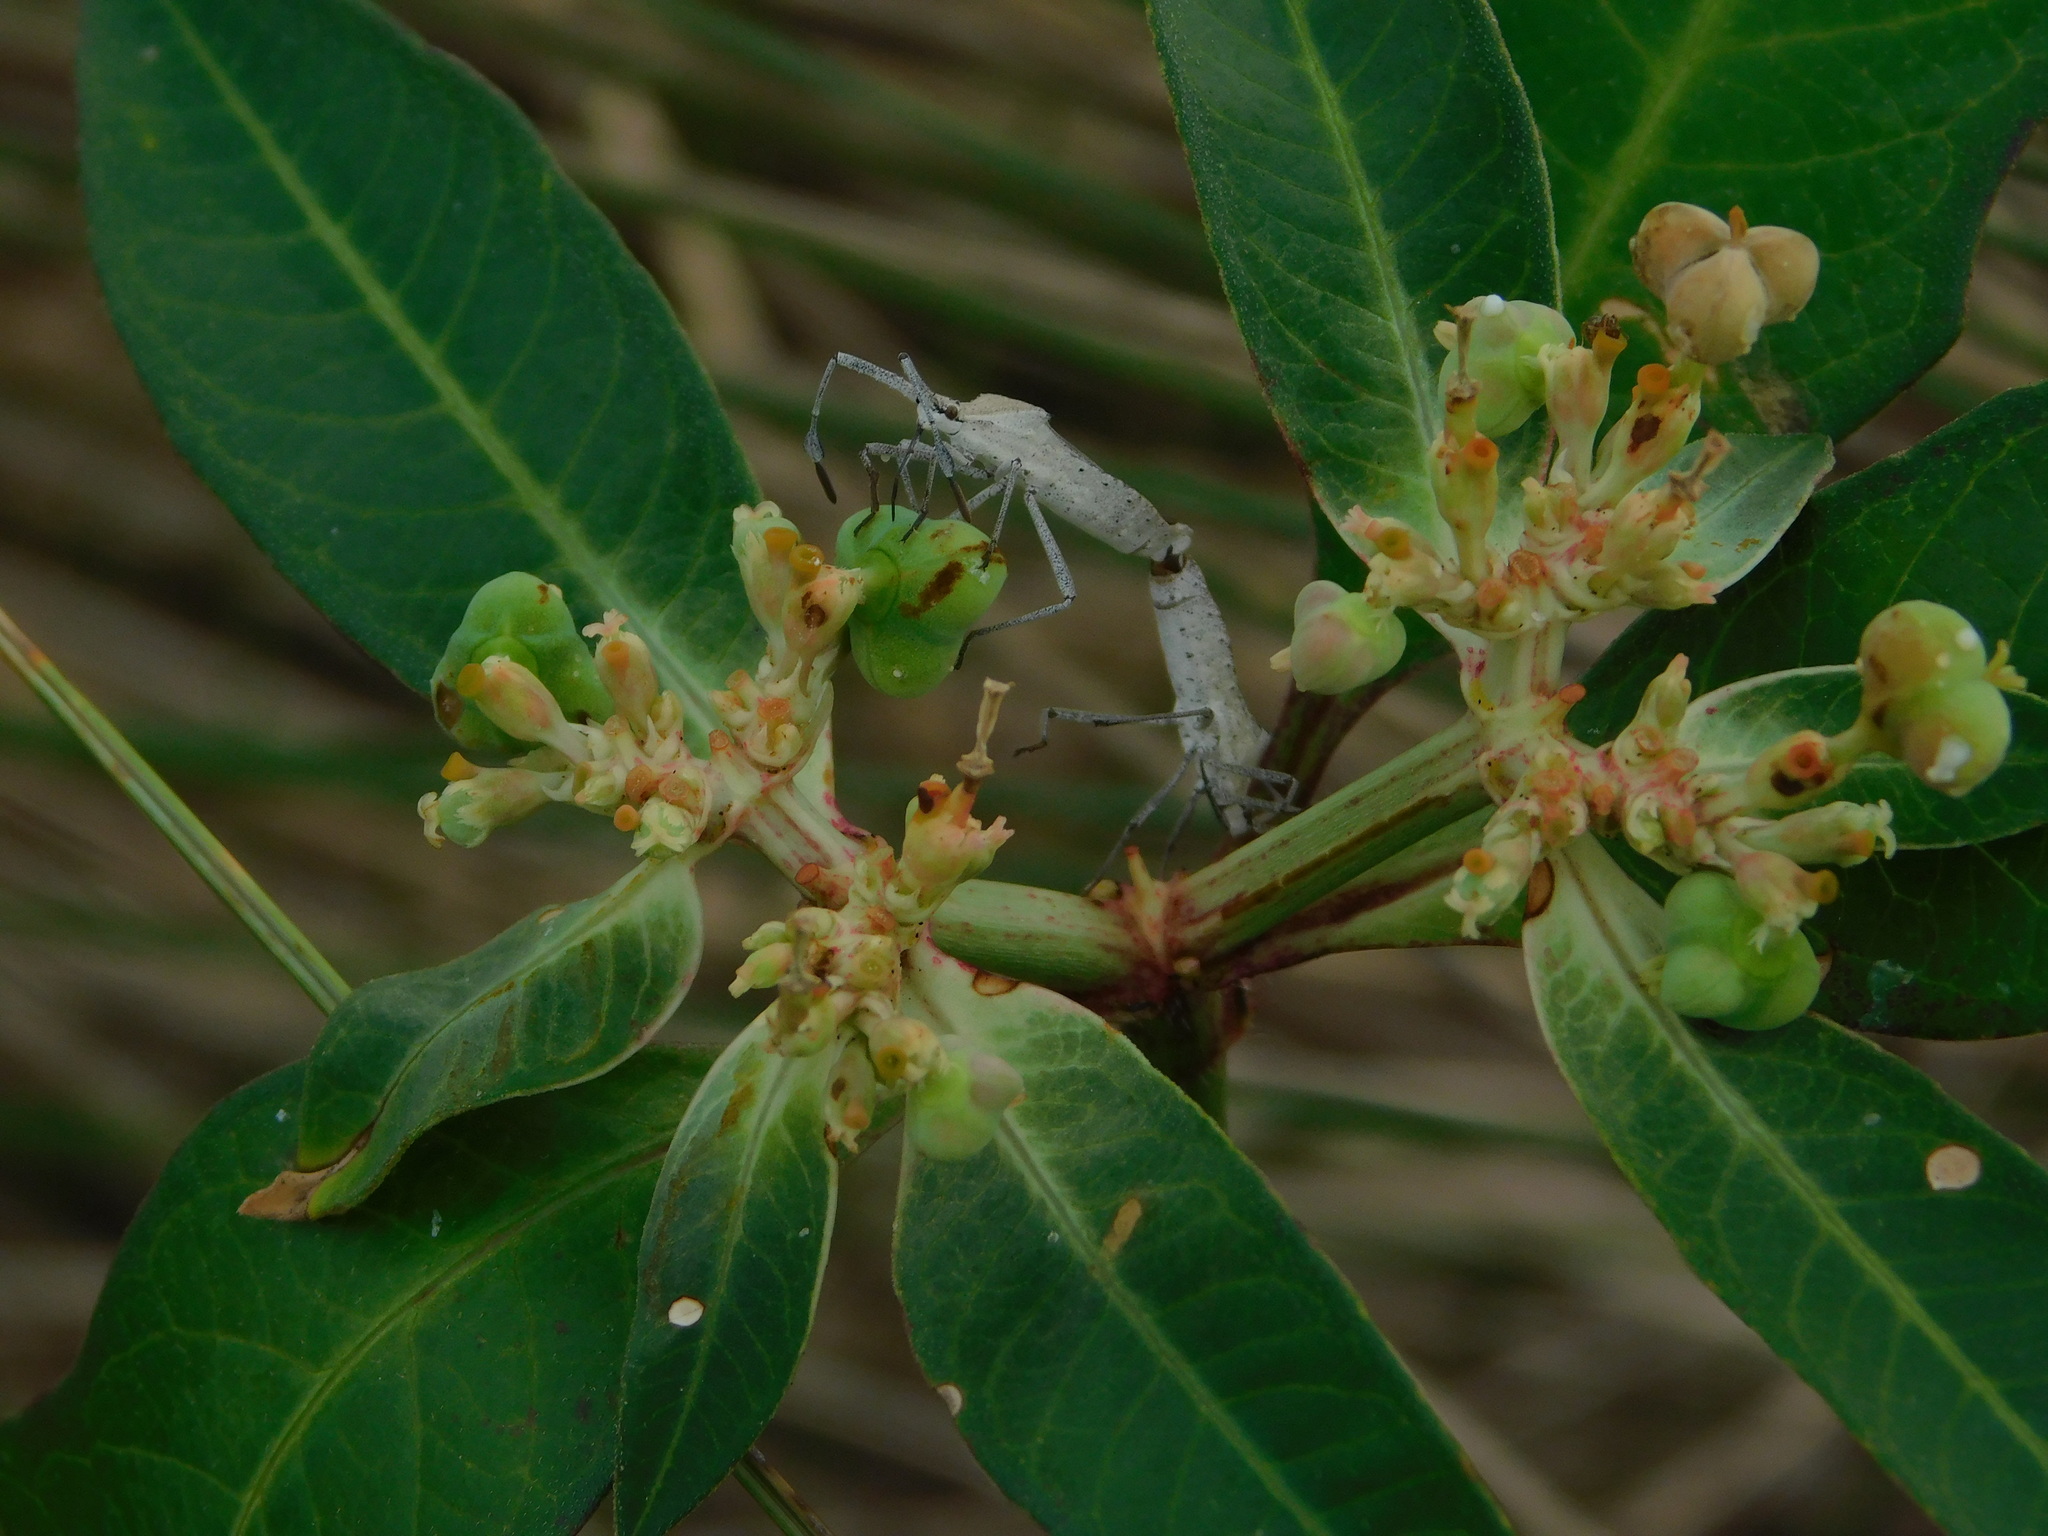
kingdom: Animalia
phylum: Arthropoda
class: Insecta
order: Hemiptera
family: Coreidae
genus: Chariesterus
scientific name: Chariesterus antennator
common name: Flat horned coreid
